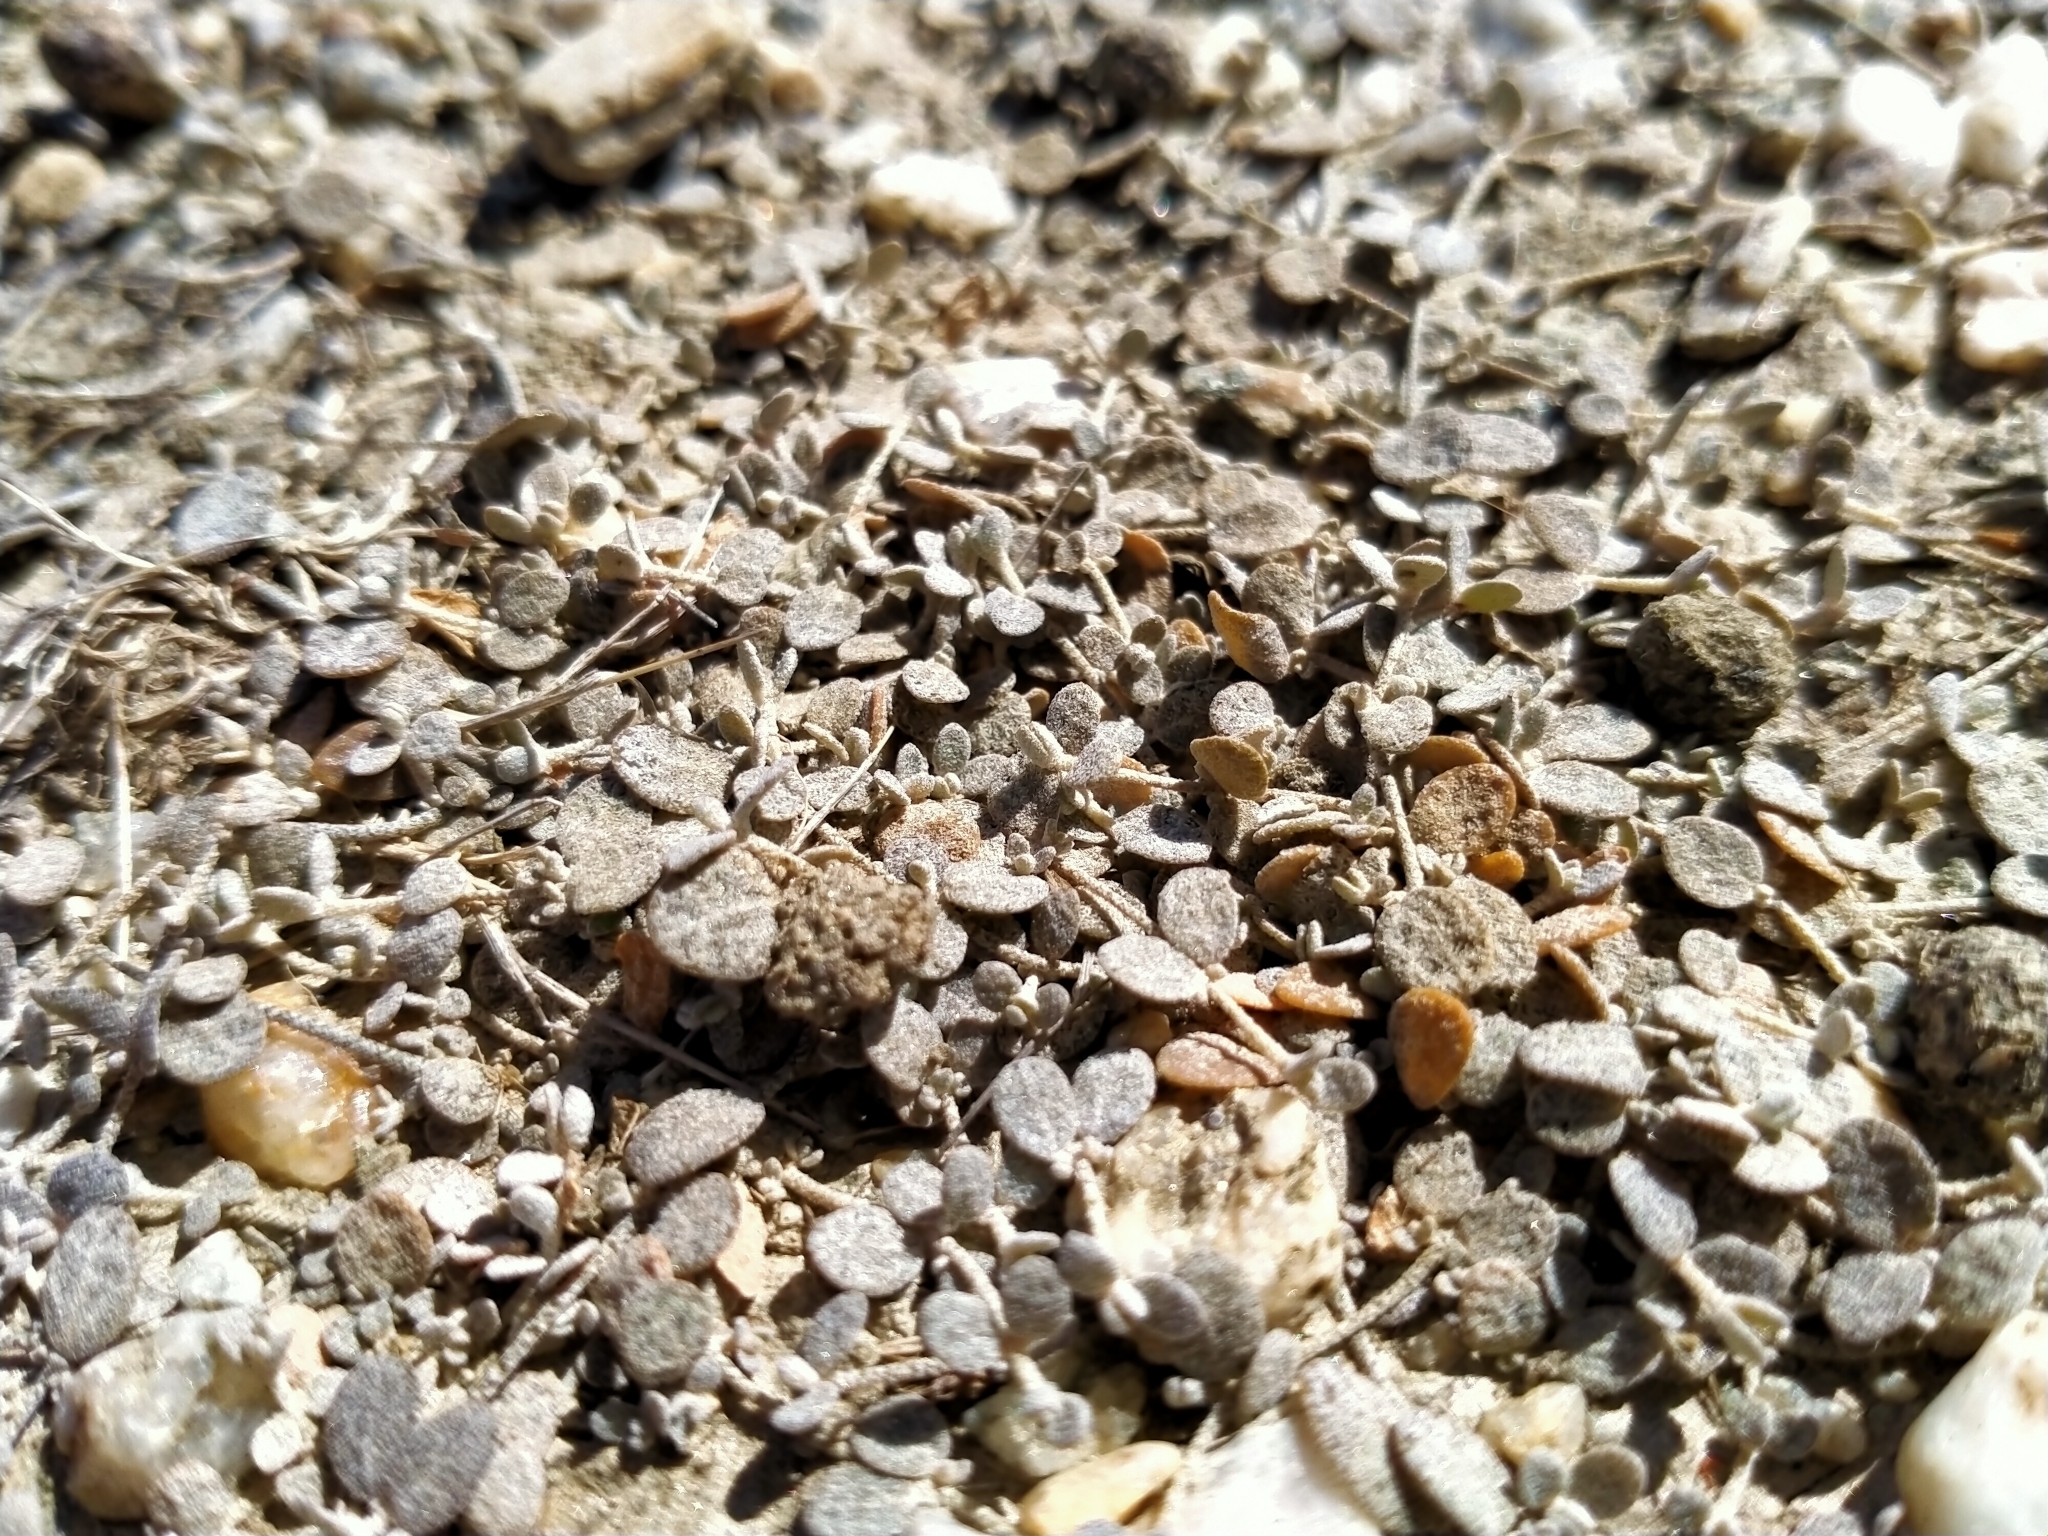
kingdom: Plantae
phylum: Tracheophyta
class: Magnoliopsida
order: Caryophyllales
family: Amaranthaceae
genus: Atriplex
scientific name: Atriplex buchananii
